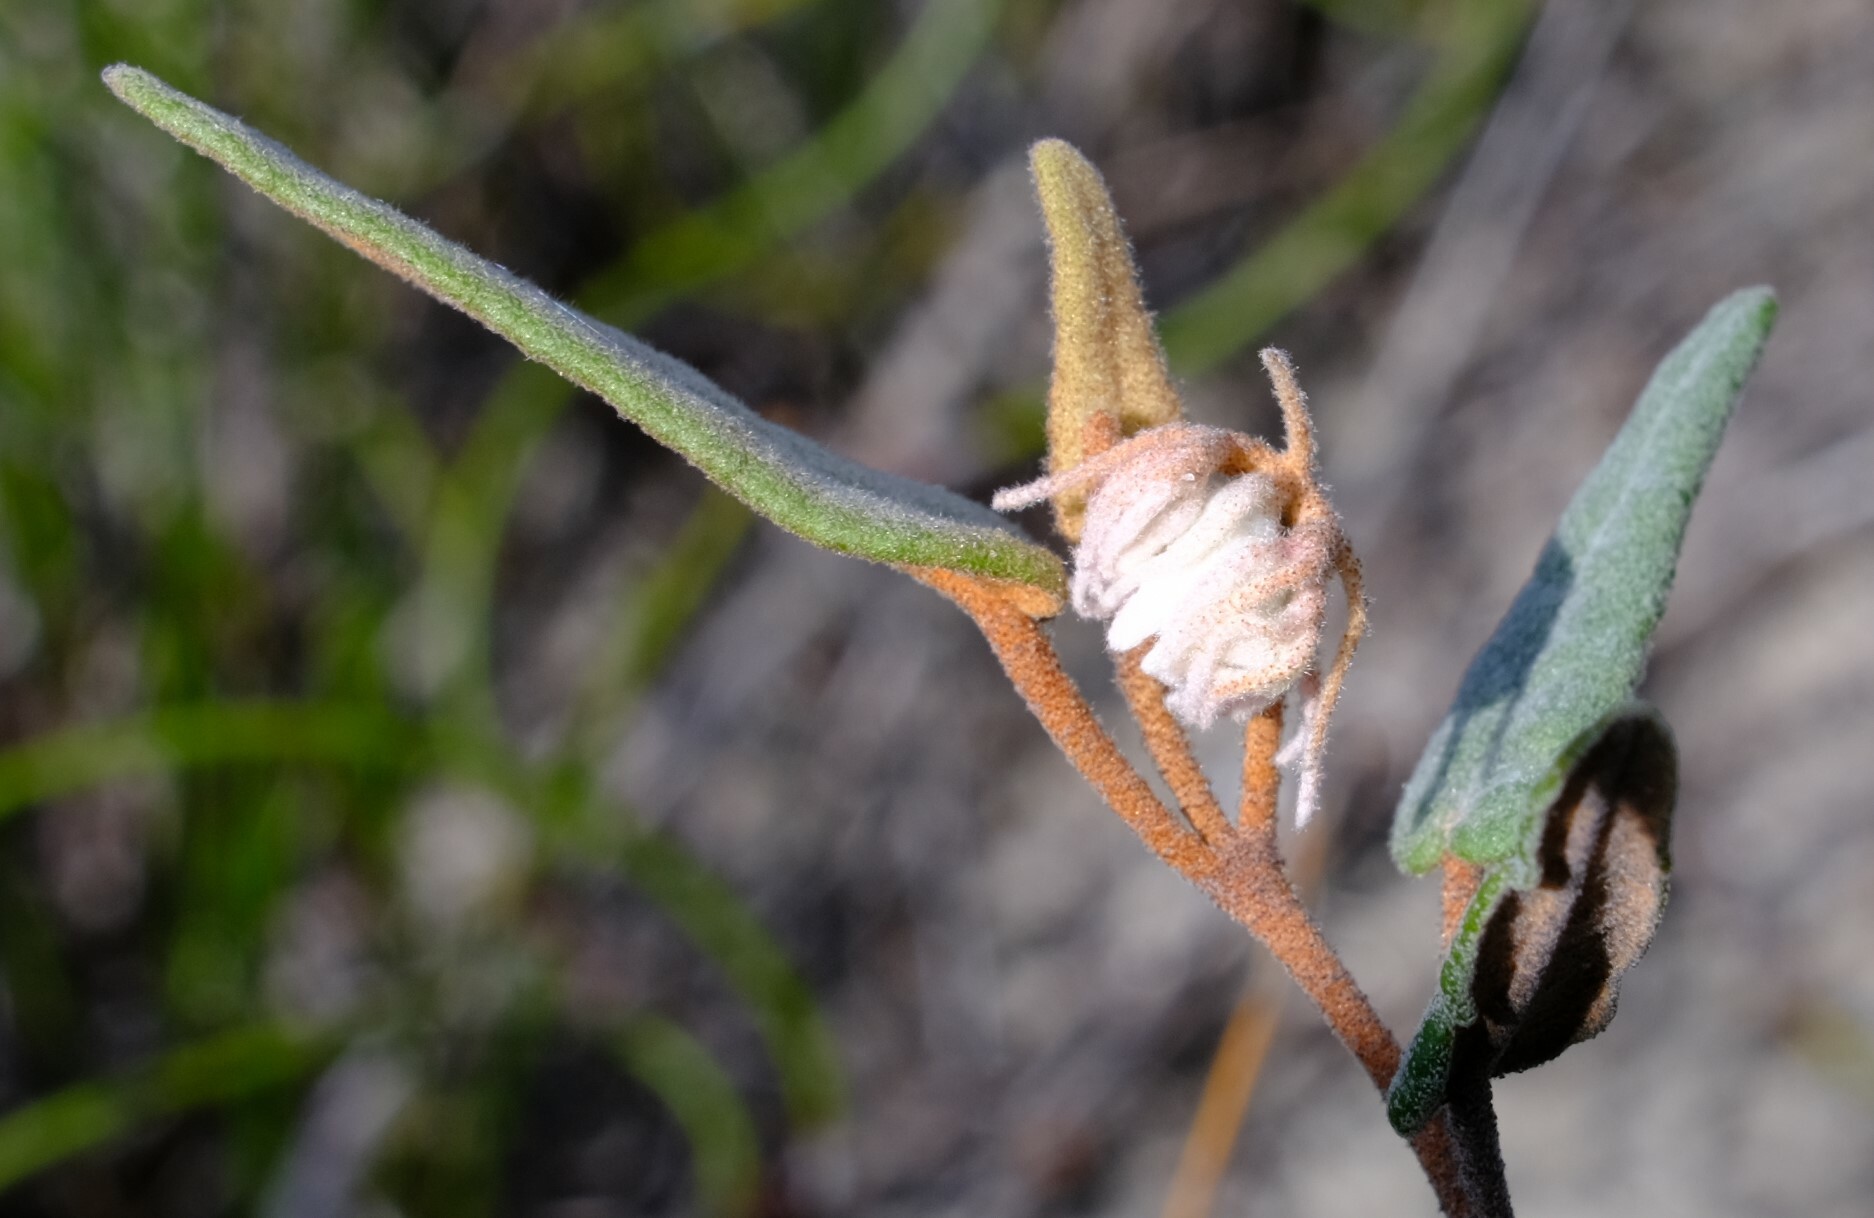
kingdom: Plantae
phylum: Tracheophyta
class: Magnoliopsida
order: Malvales
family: Malvaceae
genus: Lasiopetalum
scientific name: Lasiopetalum drummondii
